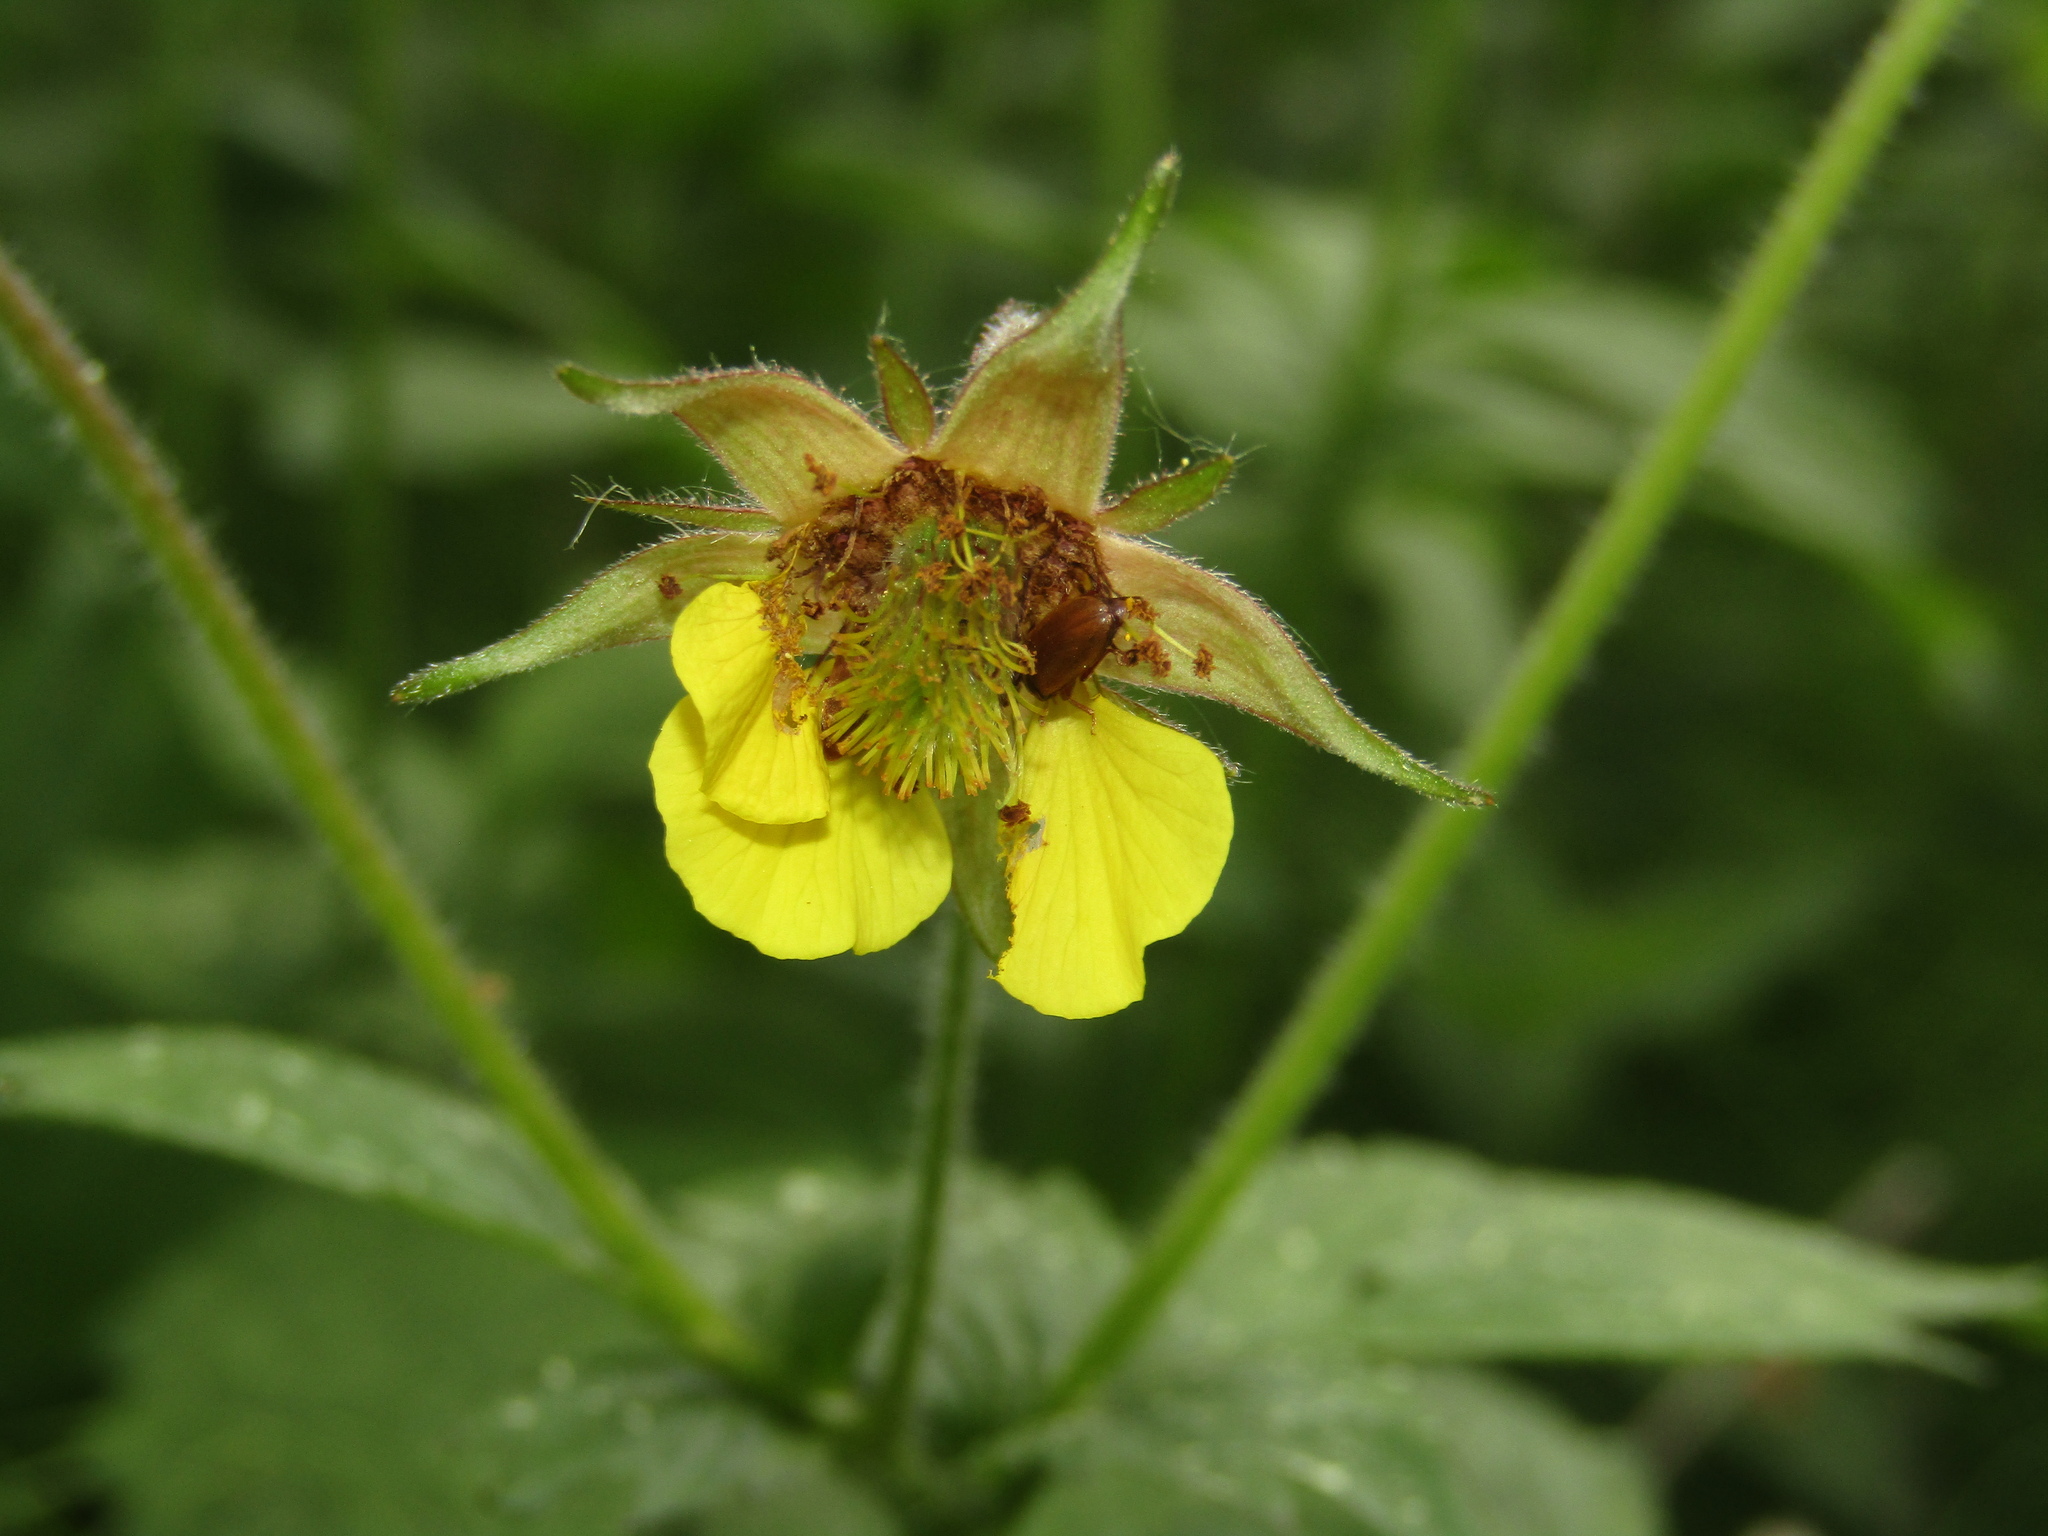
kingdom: Plantae
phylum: Tracheophyta
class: Magnoliopsida
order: Rosales
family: Rosaceae
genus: Geum
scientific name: Geum intermedium
